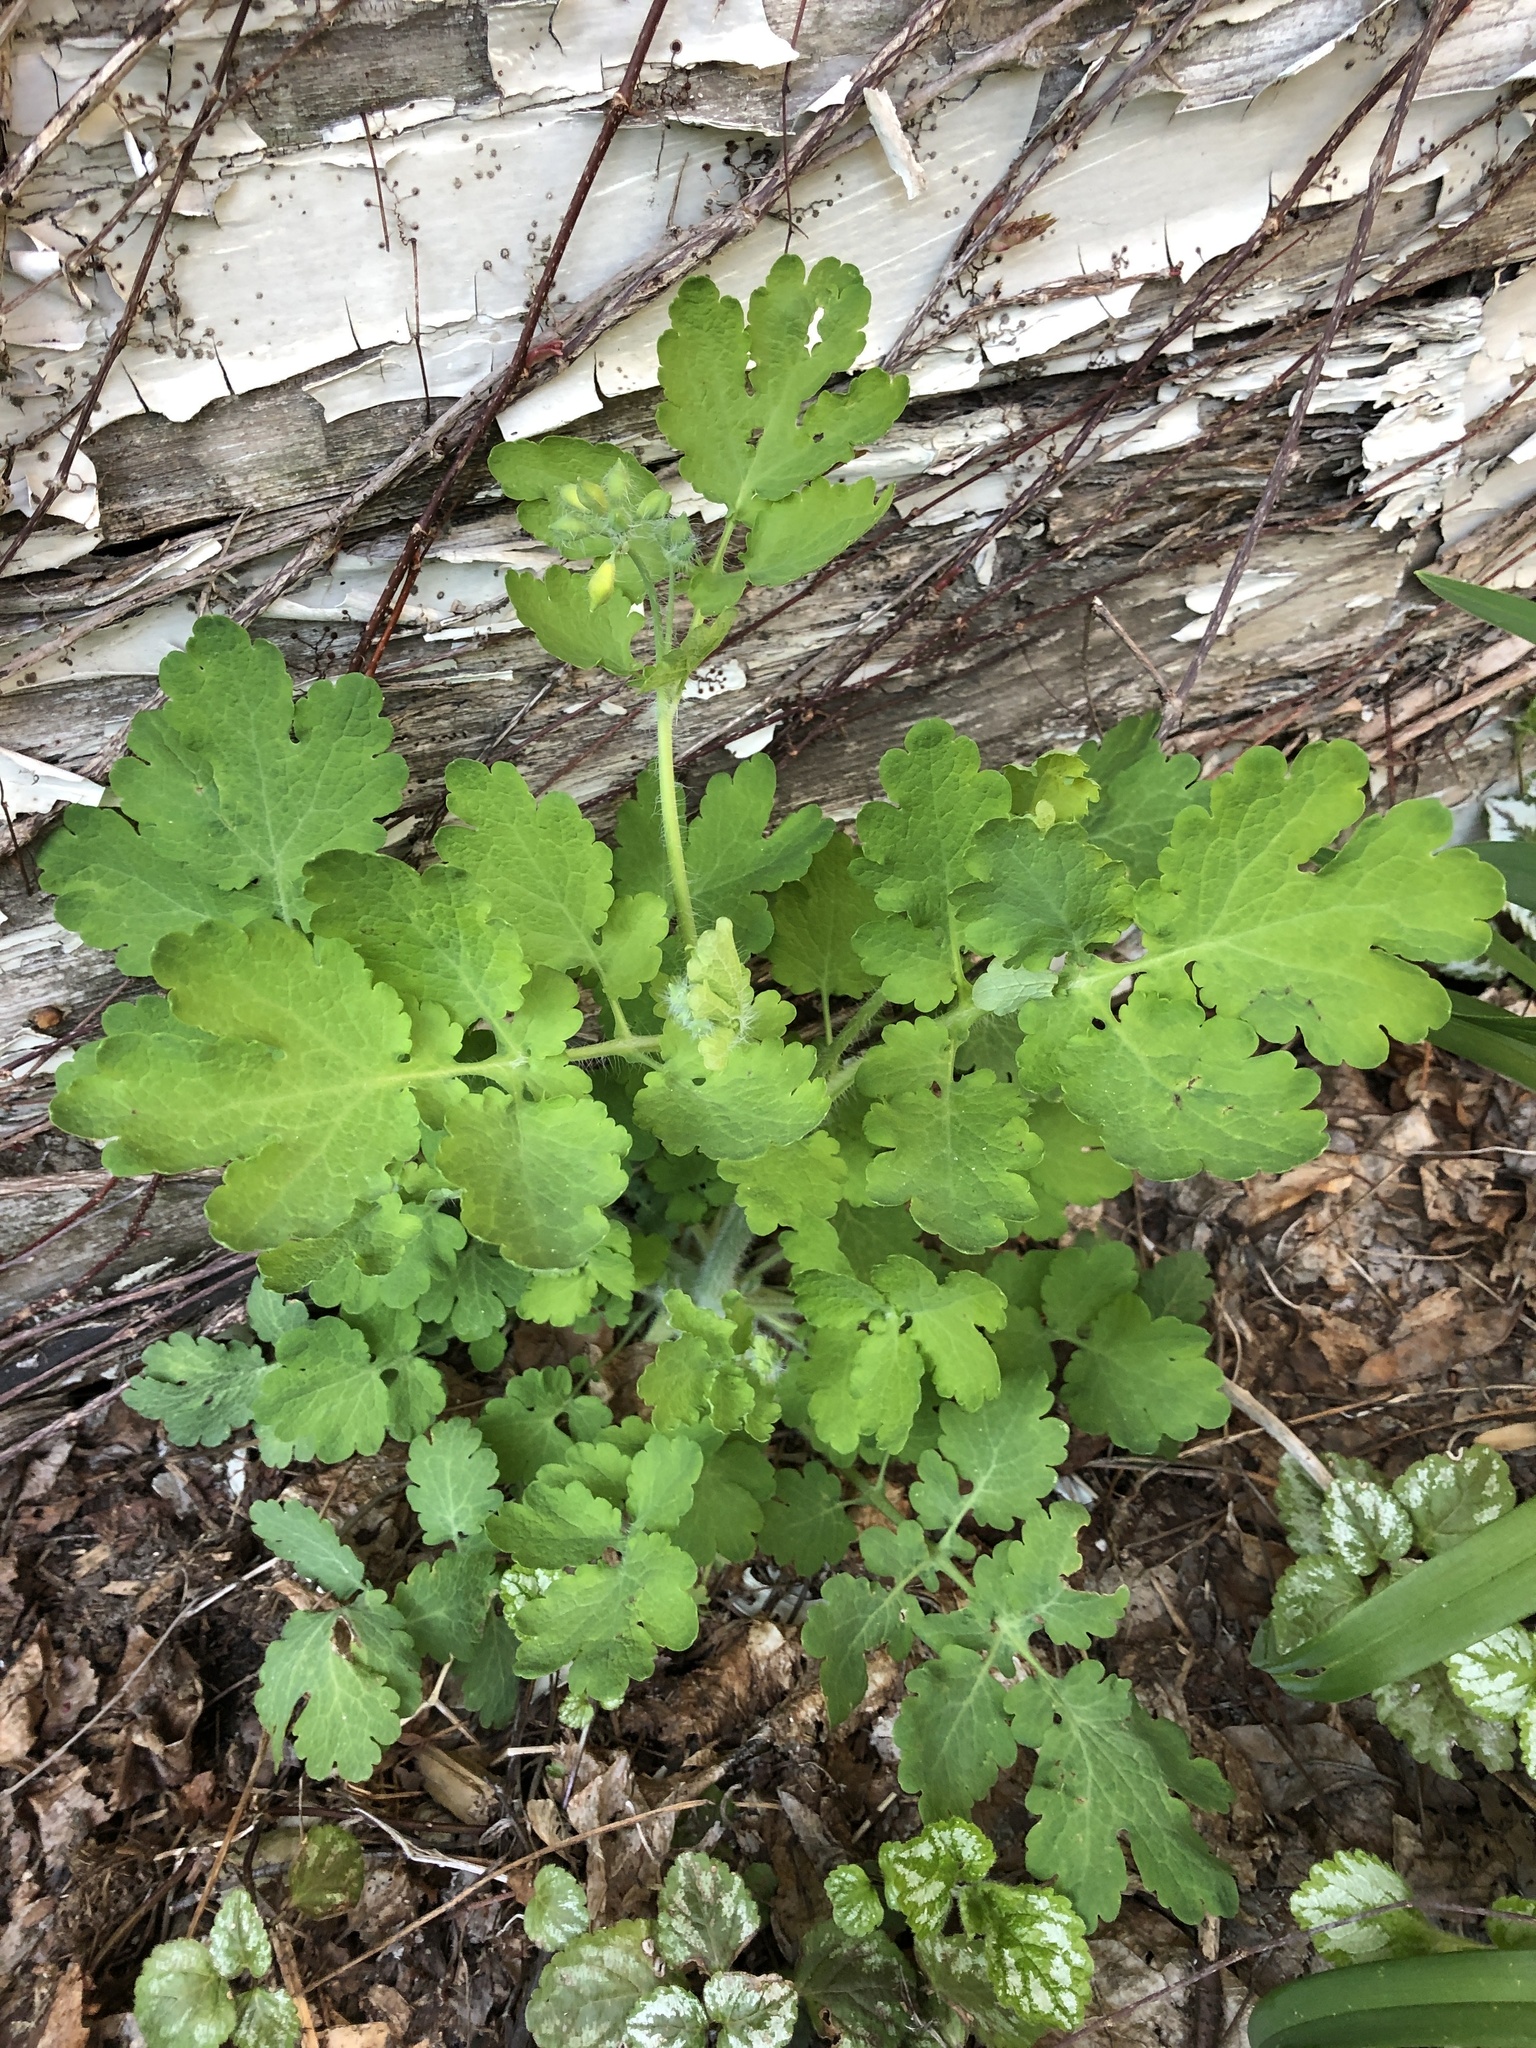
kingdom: Plantae
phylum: Tracheophyta
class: Magnoliopsida
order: Ranunculales
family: Papaveraceae
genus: Chelidonium
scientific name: Chelidonium majus
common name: Greater celandine
